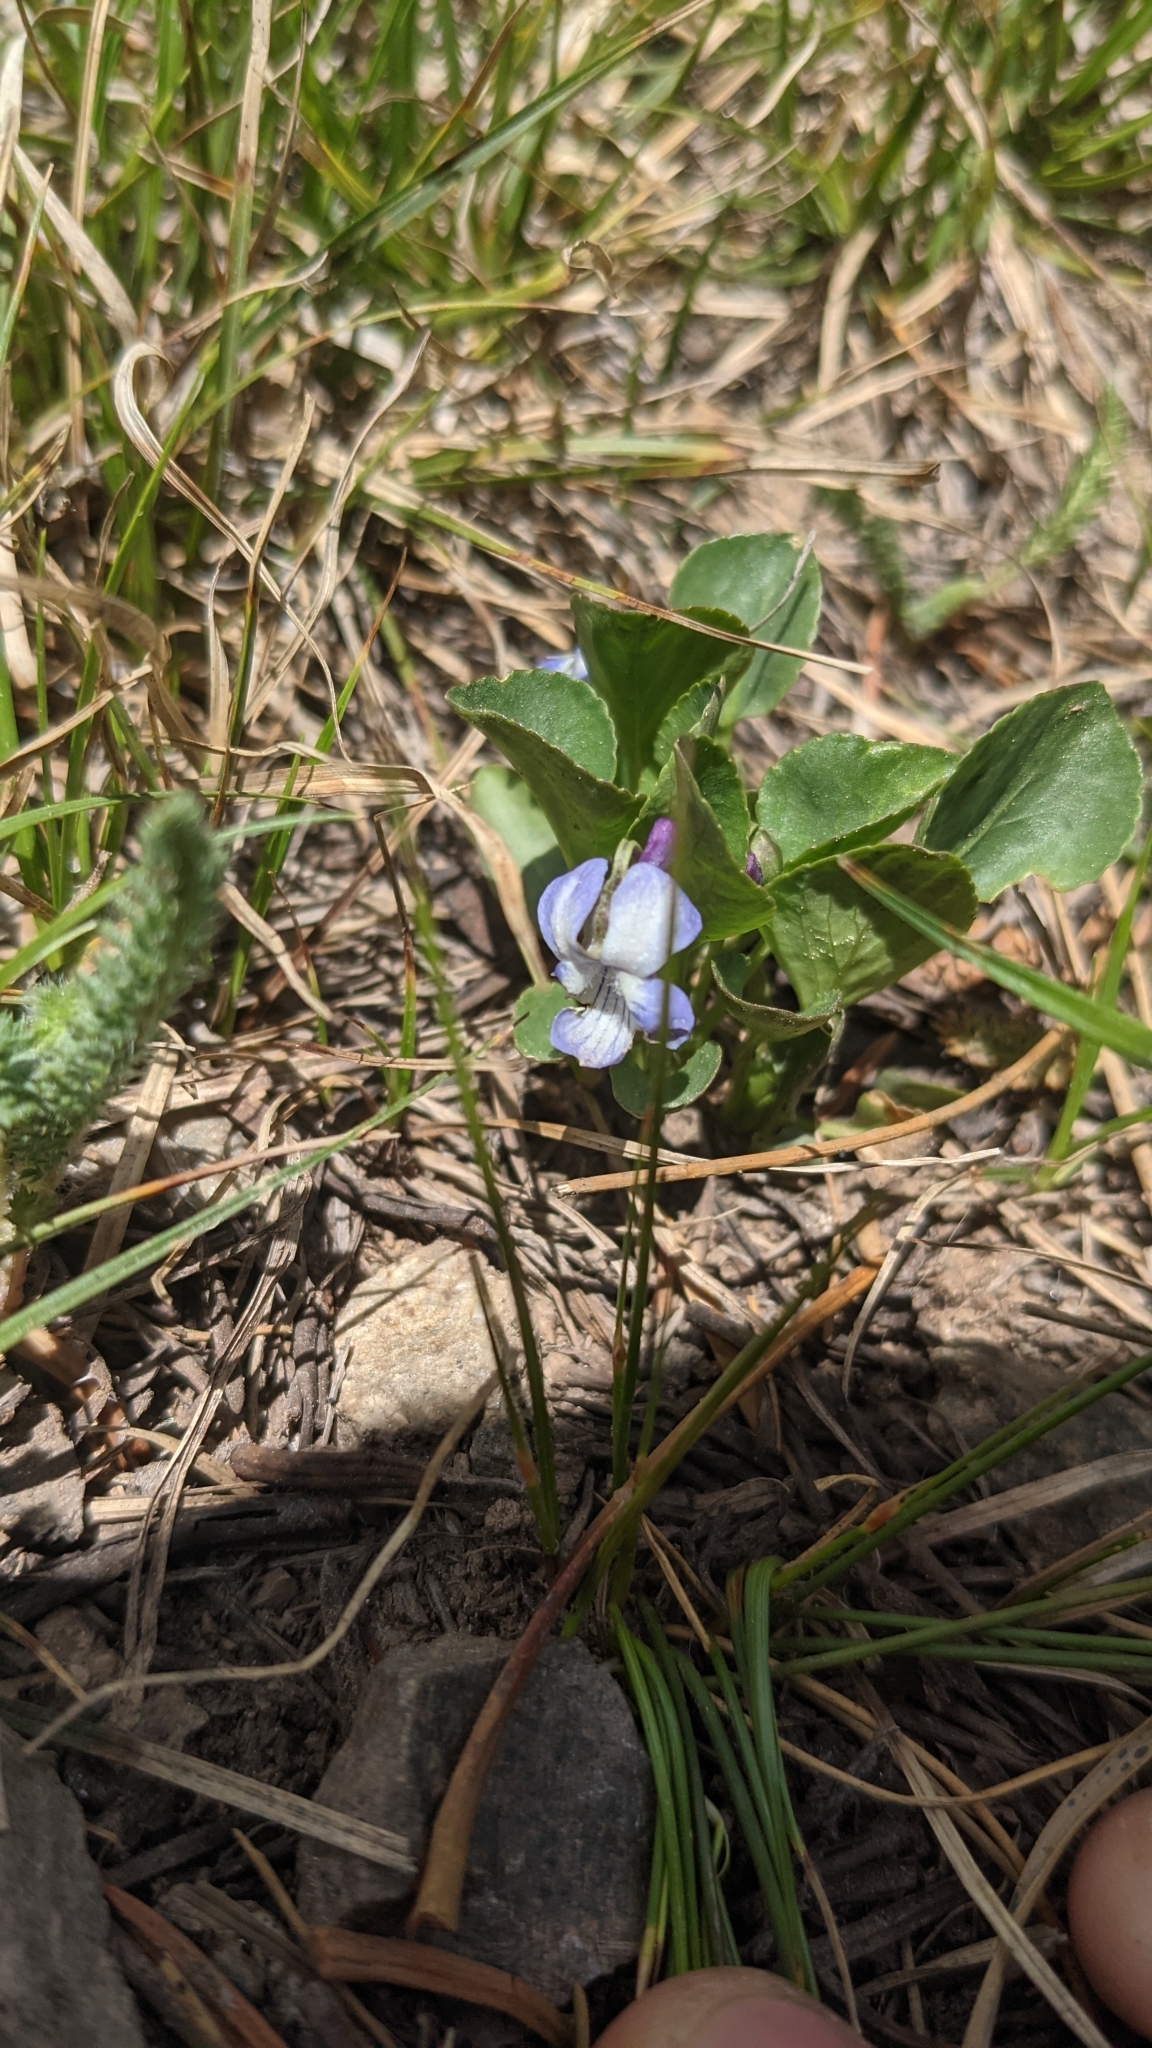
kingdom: Plantae
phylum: Tracheophyta
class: Magnoliopsida
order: Malpighiales
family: Violaceae
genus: Viola
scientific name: Viola adunca
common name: Sand violet
